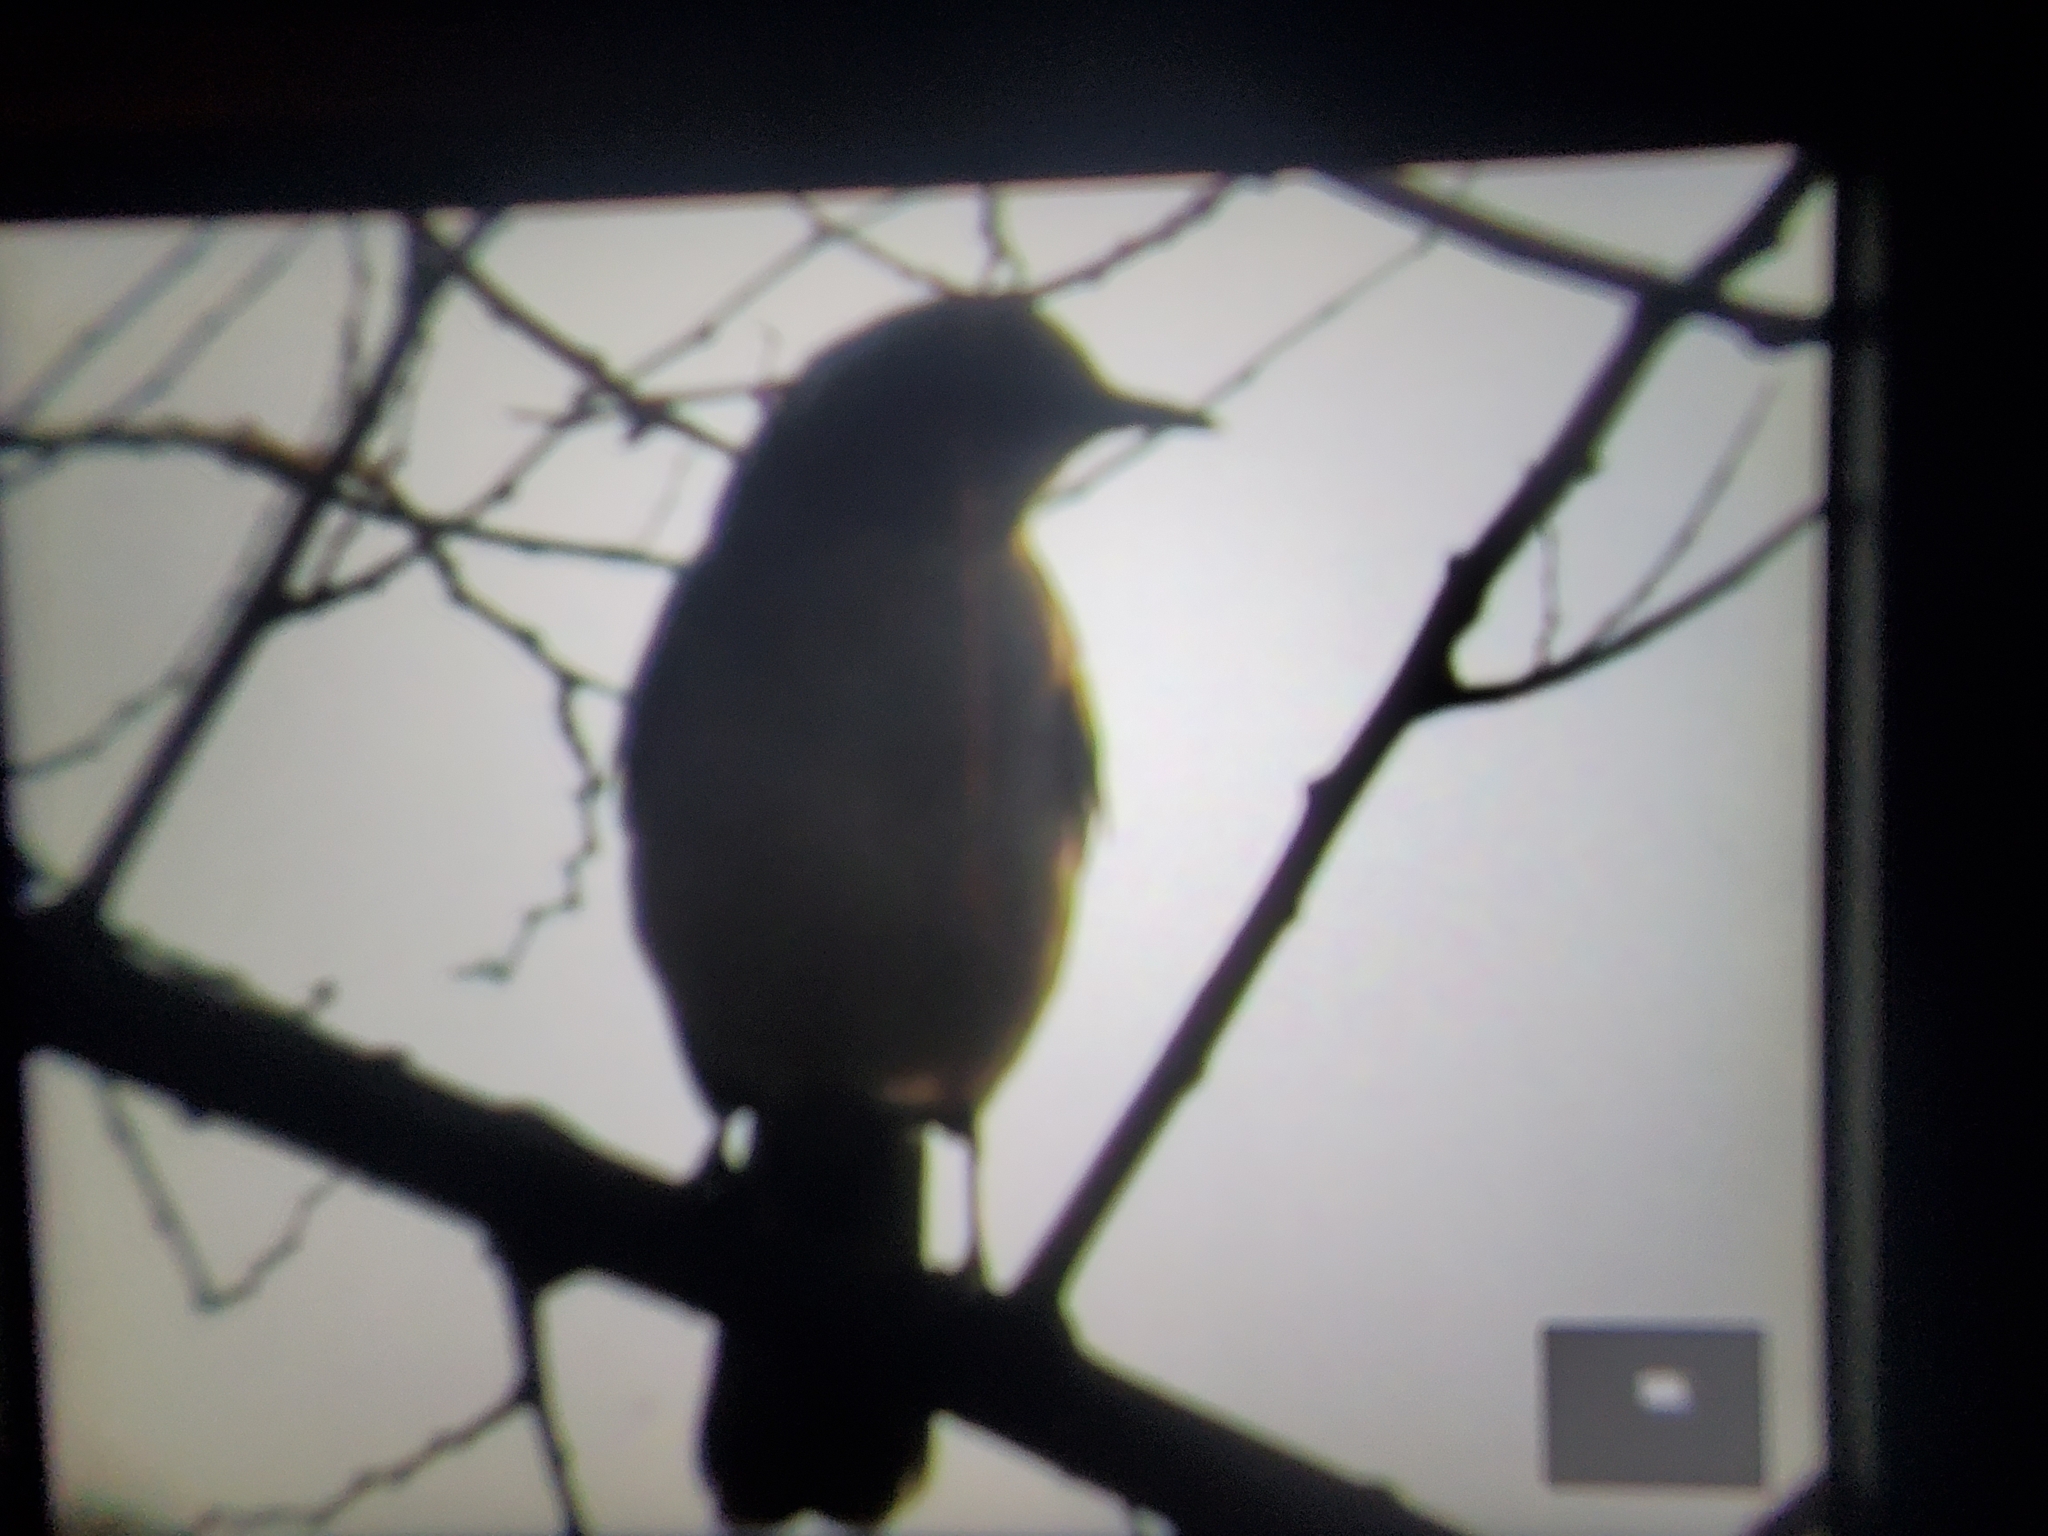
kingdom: Animalia
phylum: Chordata
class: Aves
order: Passeriformes
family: Mimidae
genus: Mimus
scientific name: Mimus polyglottos
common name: Northern mockingbird
